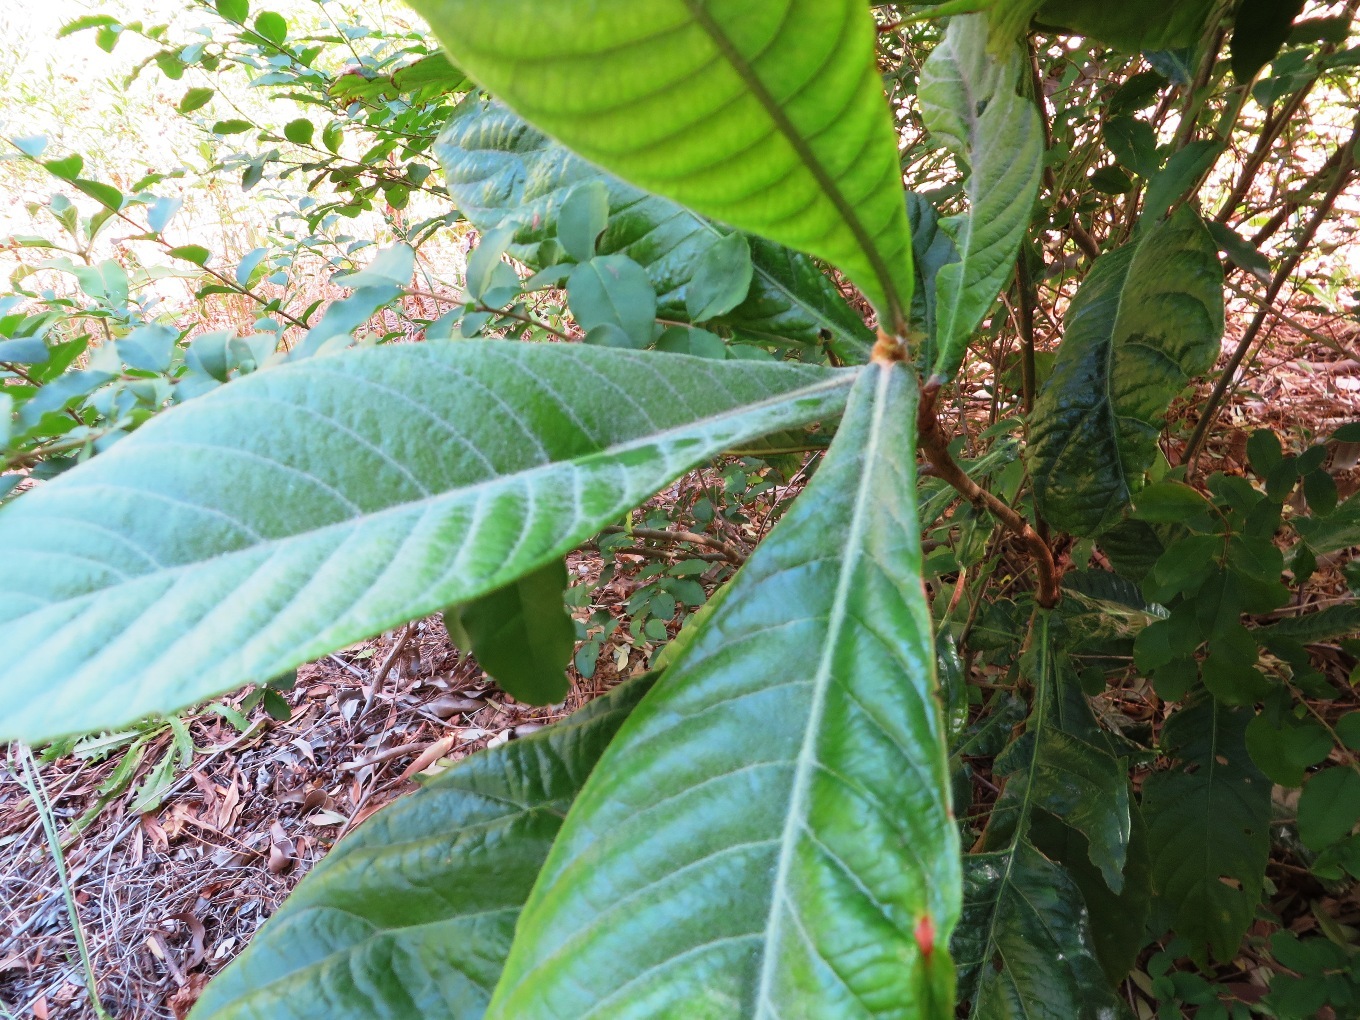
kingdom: Plantae
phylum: Tracheophyta
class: Magnoliopsida
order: Rosales
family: Rosaceae
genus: Rhaphiolepis
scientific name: Rhaphiolepis bibas
